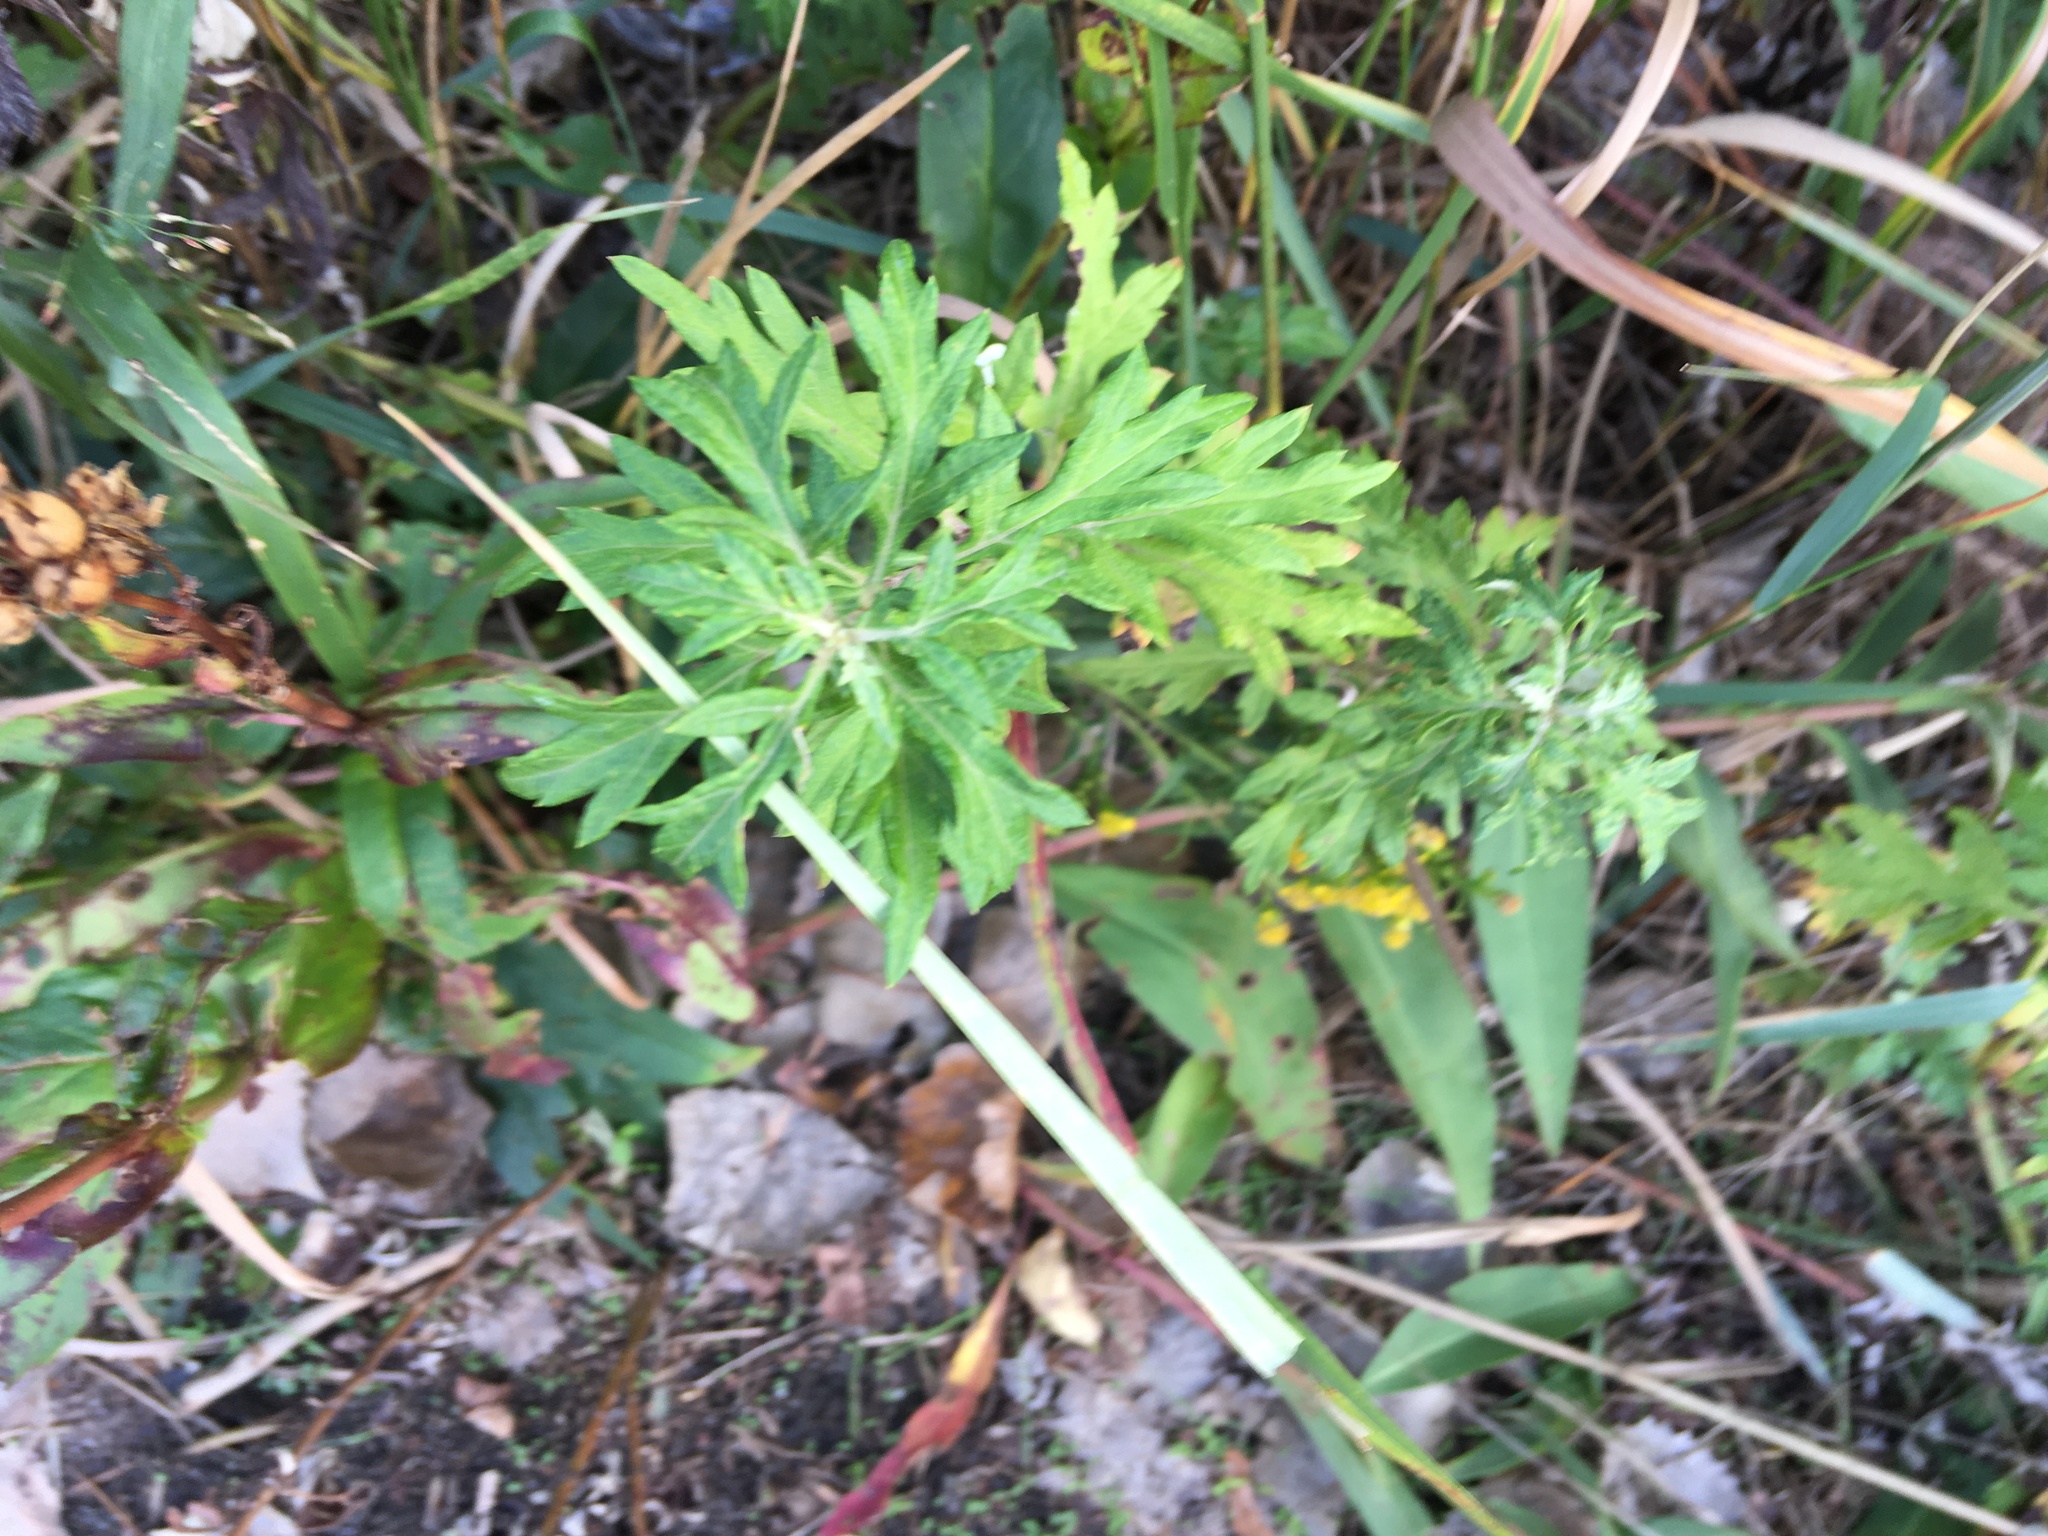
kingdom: Plantae
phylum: Tracheophyta
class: Magnoliopsida
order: Asterales
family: Asteraceae
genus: Artemisia
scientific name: Artemisia vulgaris
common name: Mugwort
